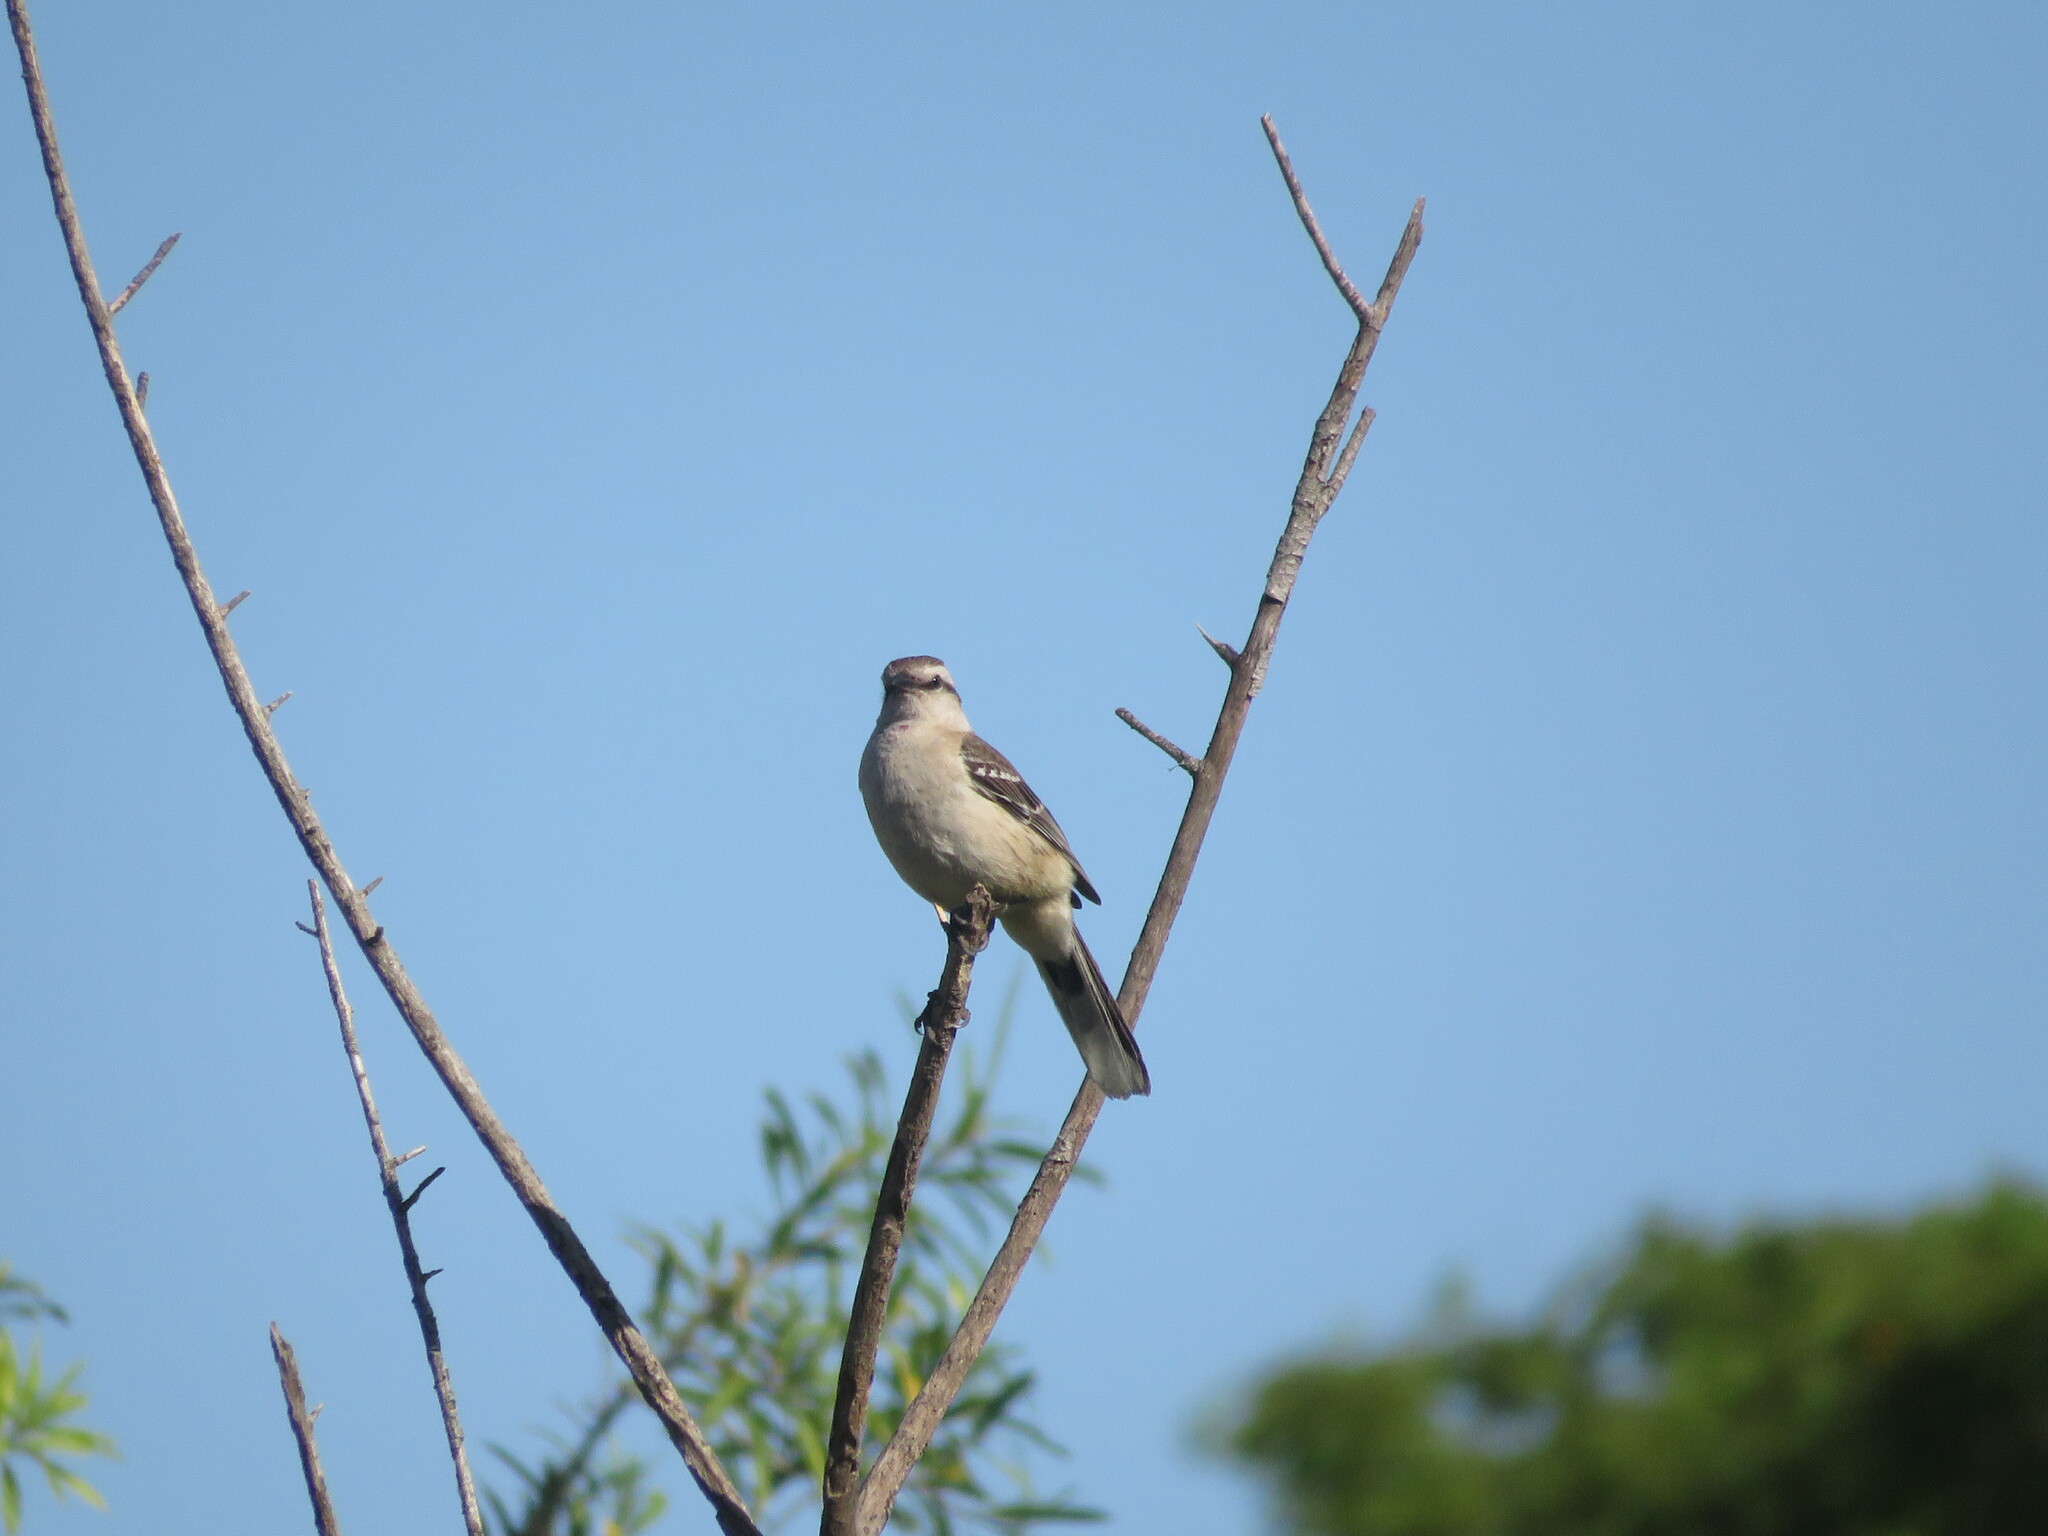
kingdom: Animalia
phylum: Chordata
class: Aves
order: Passeriformes
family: Mimidae
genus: Mimus
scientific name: Mimus saturninus
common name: Chalk-browed mockingbird
